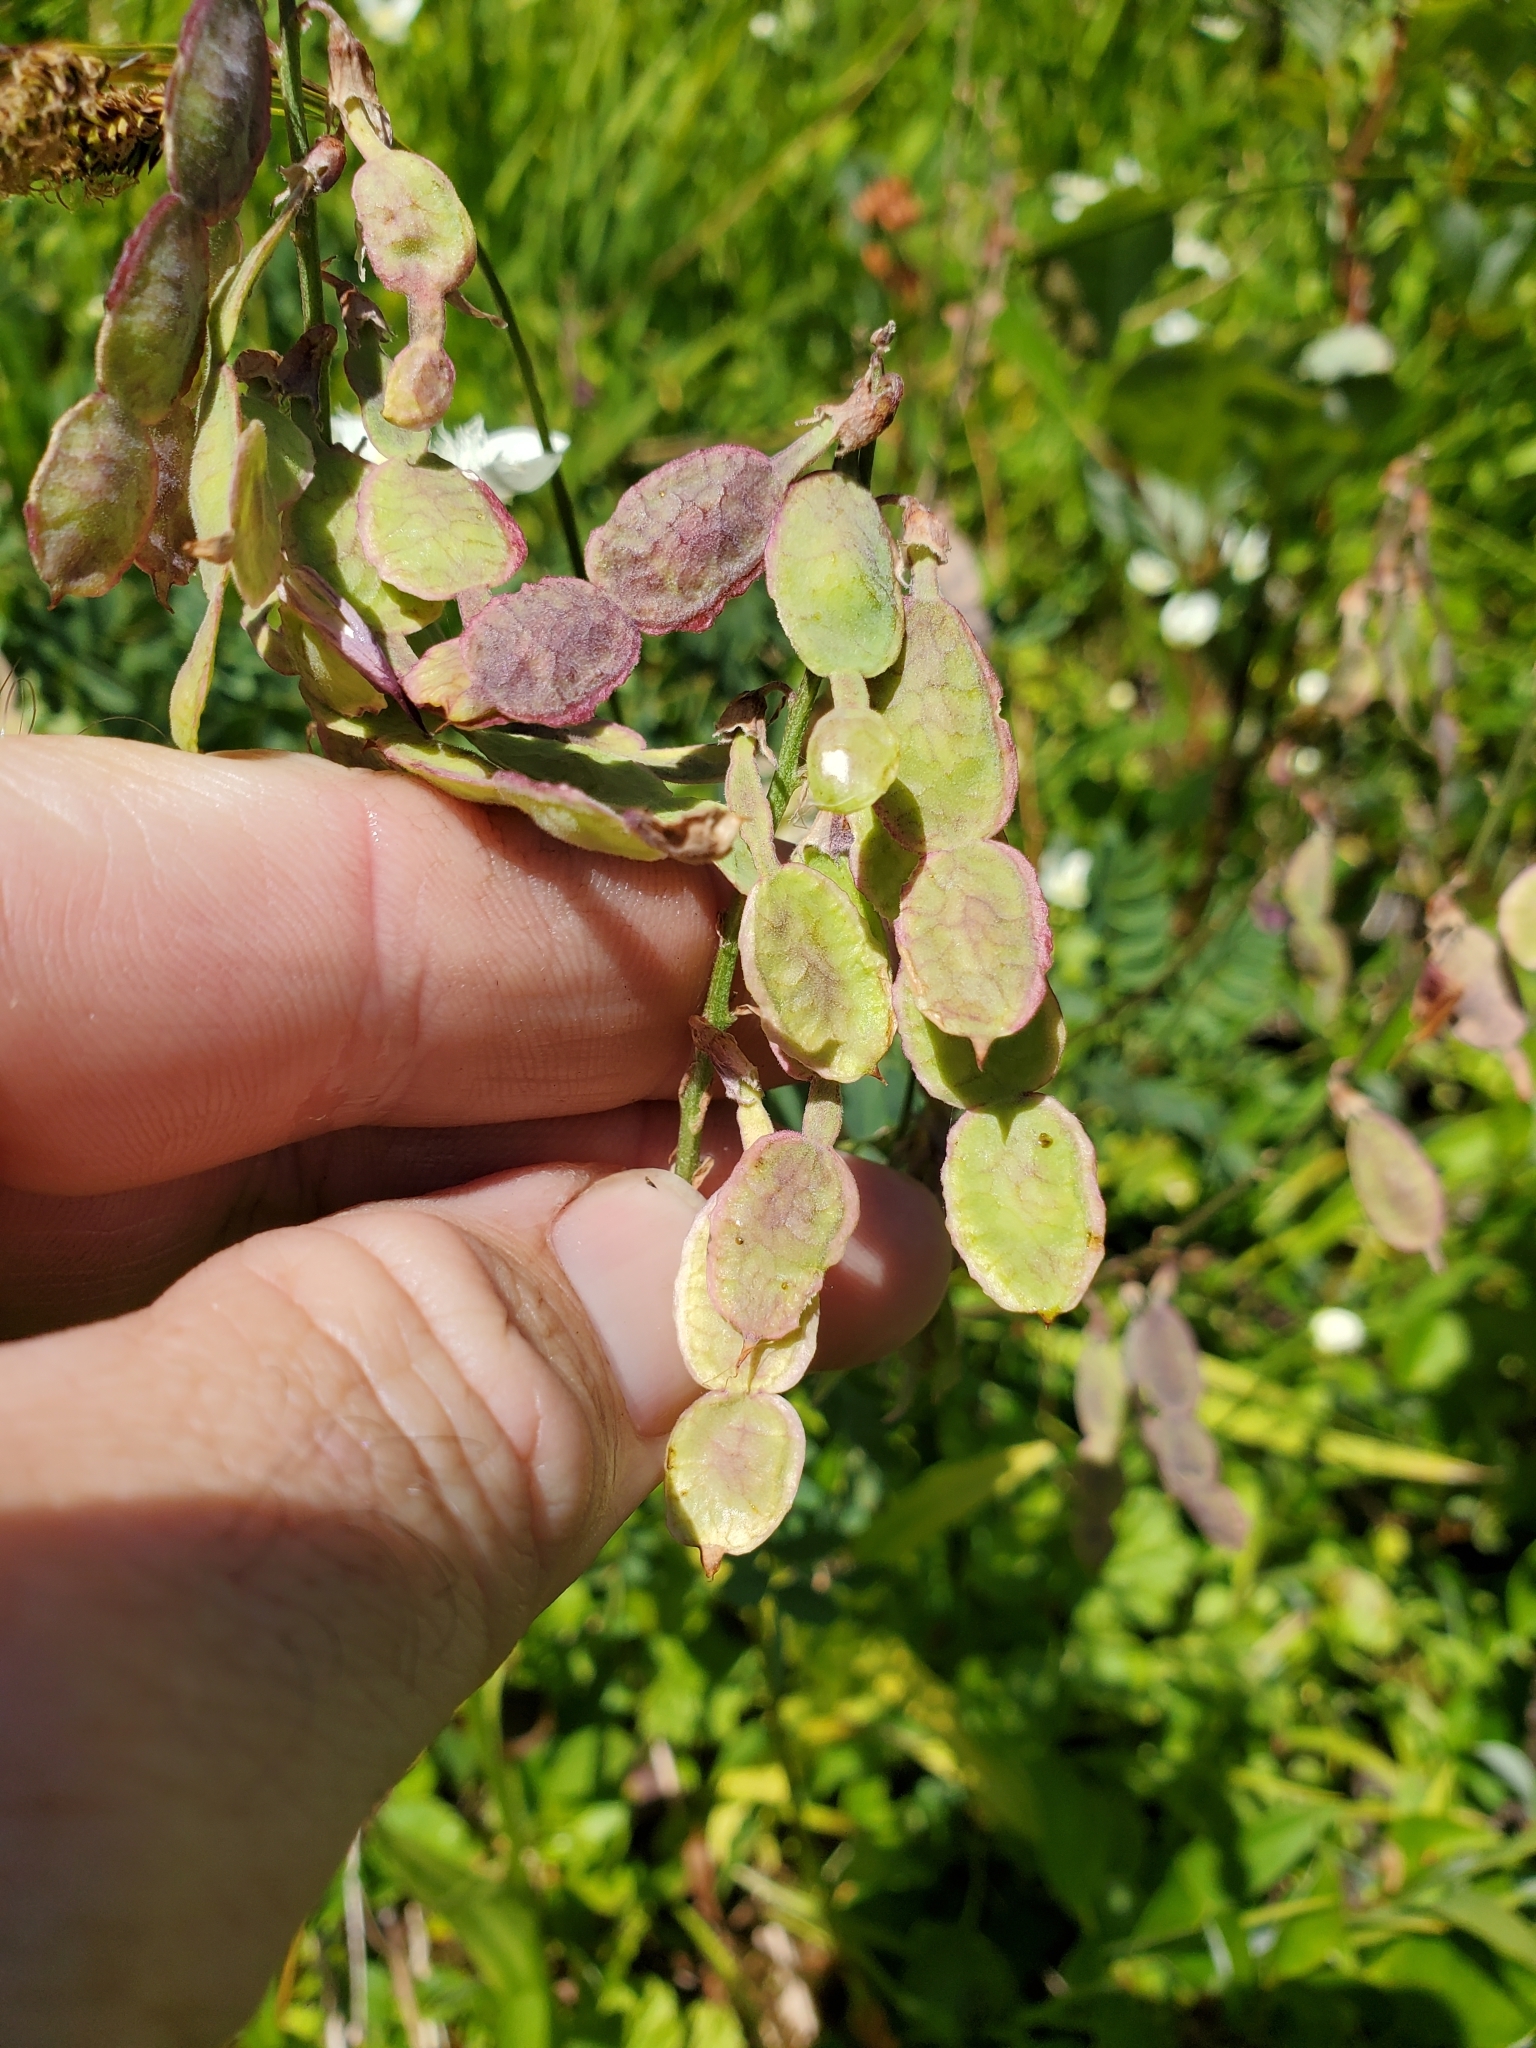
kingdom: Plantae
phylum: Tracheophyta
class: Magnoliopsida
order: Fabales
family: Fabaceae
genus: Hedysarum
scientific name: Hedysarum occidentale
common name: Western hedysarum
